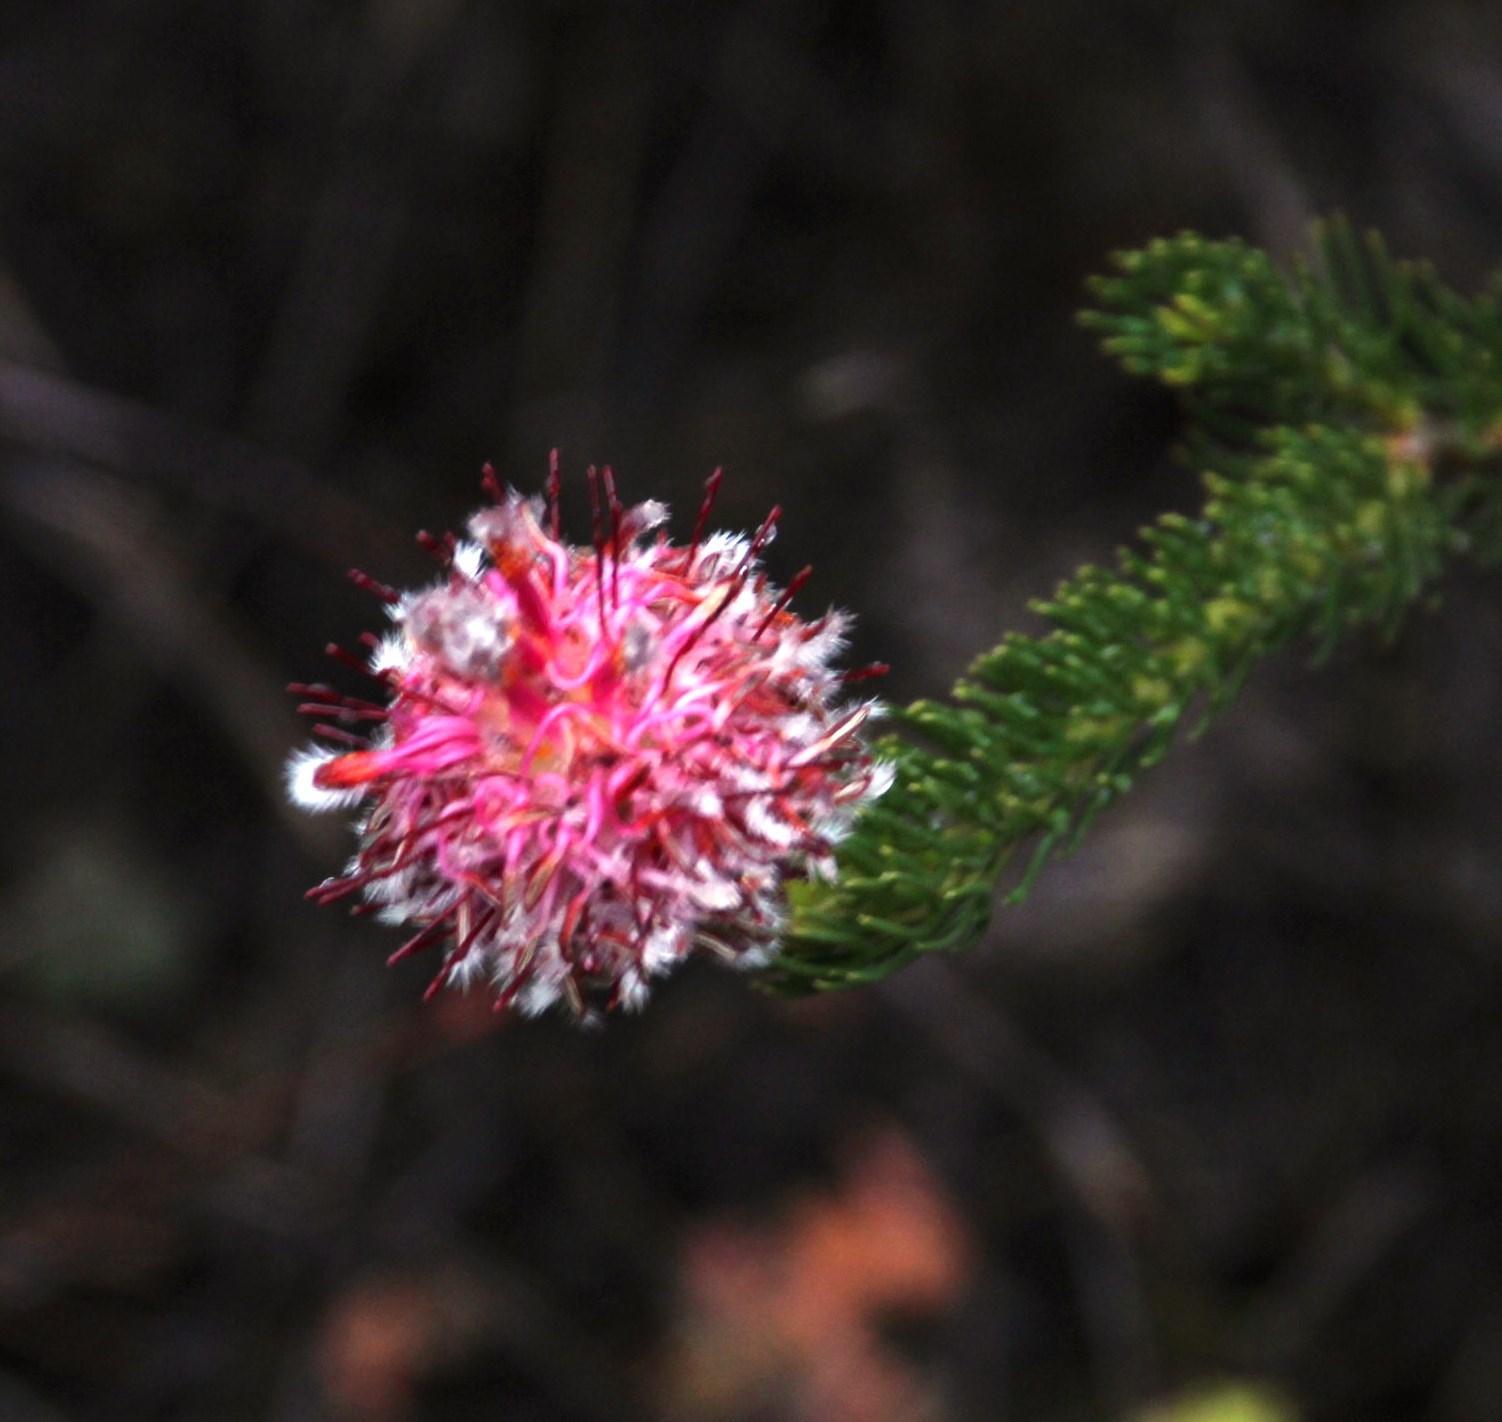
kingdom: Plantae
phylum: Tracheophyta
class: Magnoliopsida
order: Proteales
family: Proteaceae
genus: Serruria
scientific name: Serruria trilopha
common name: Trident spiderhead
